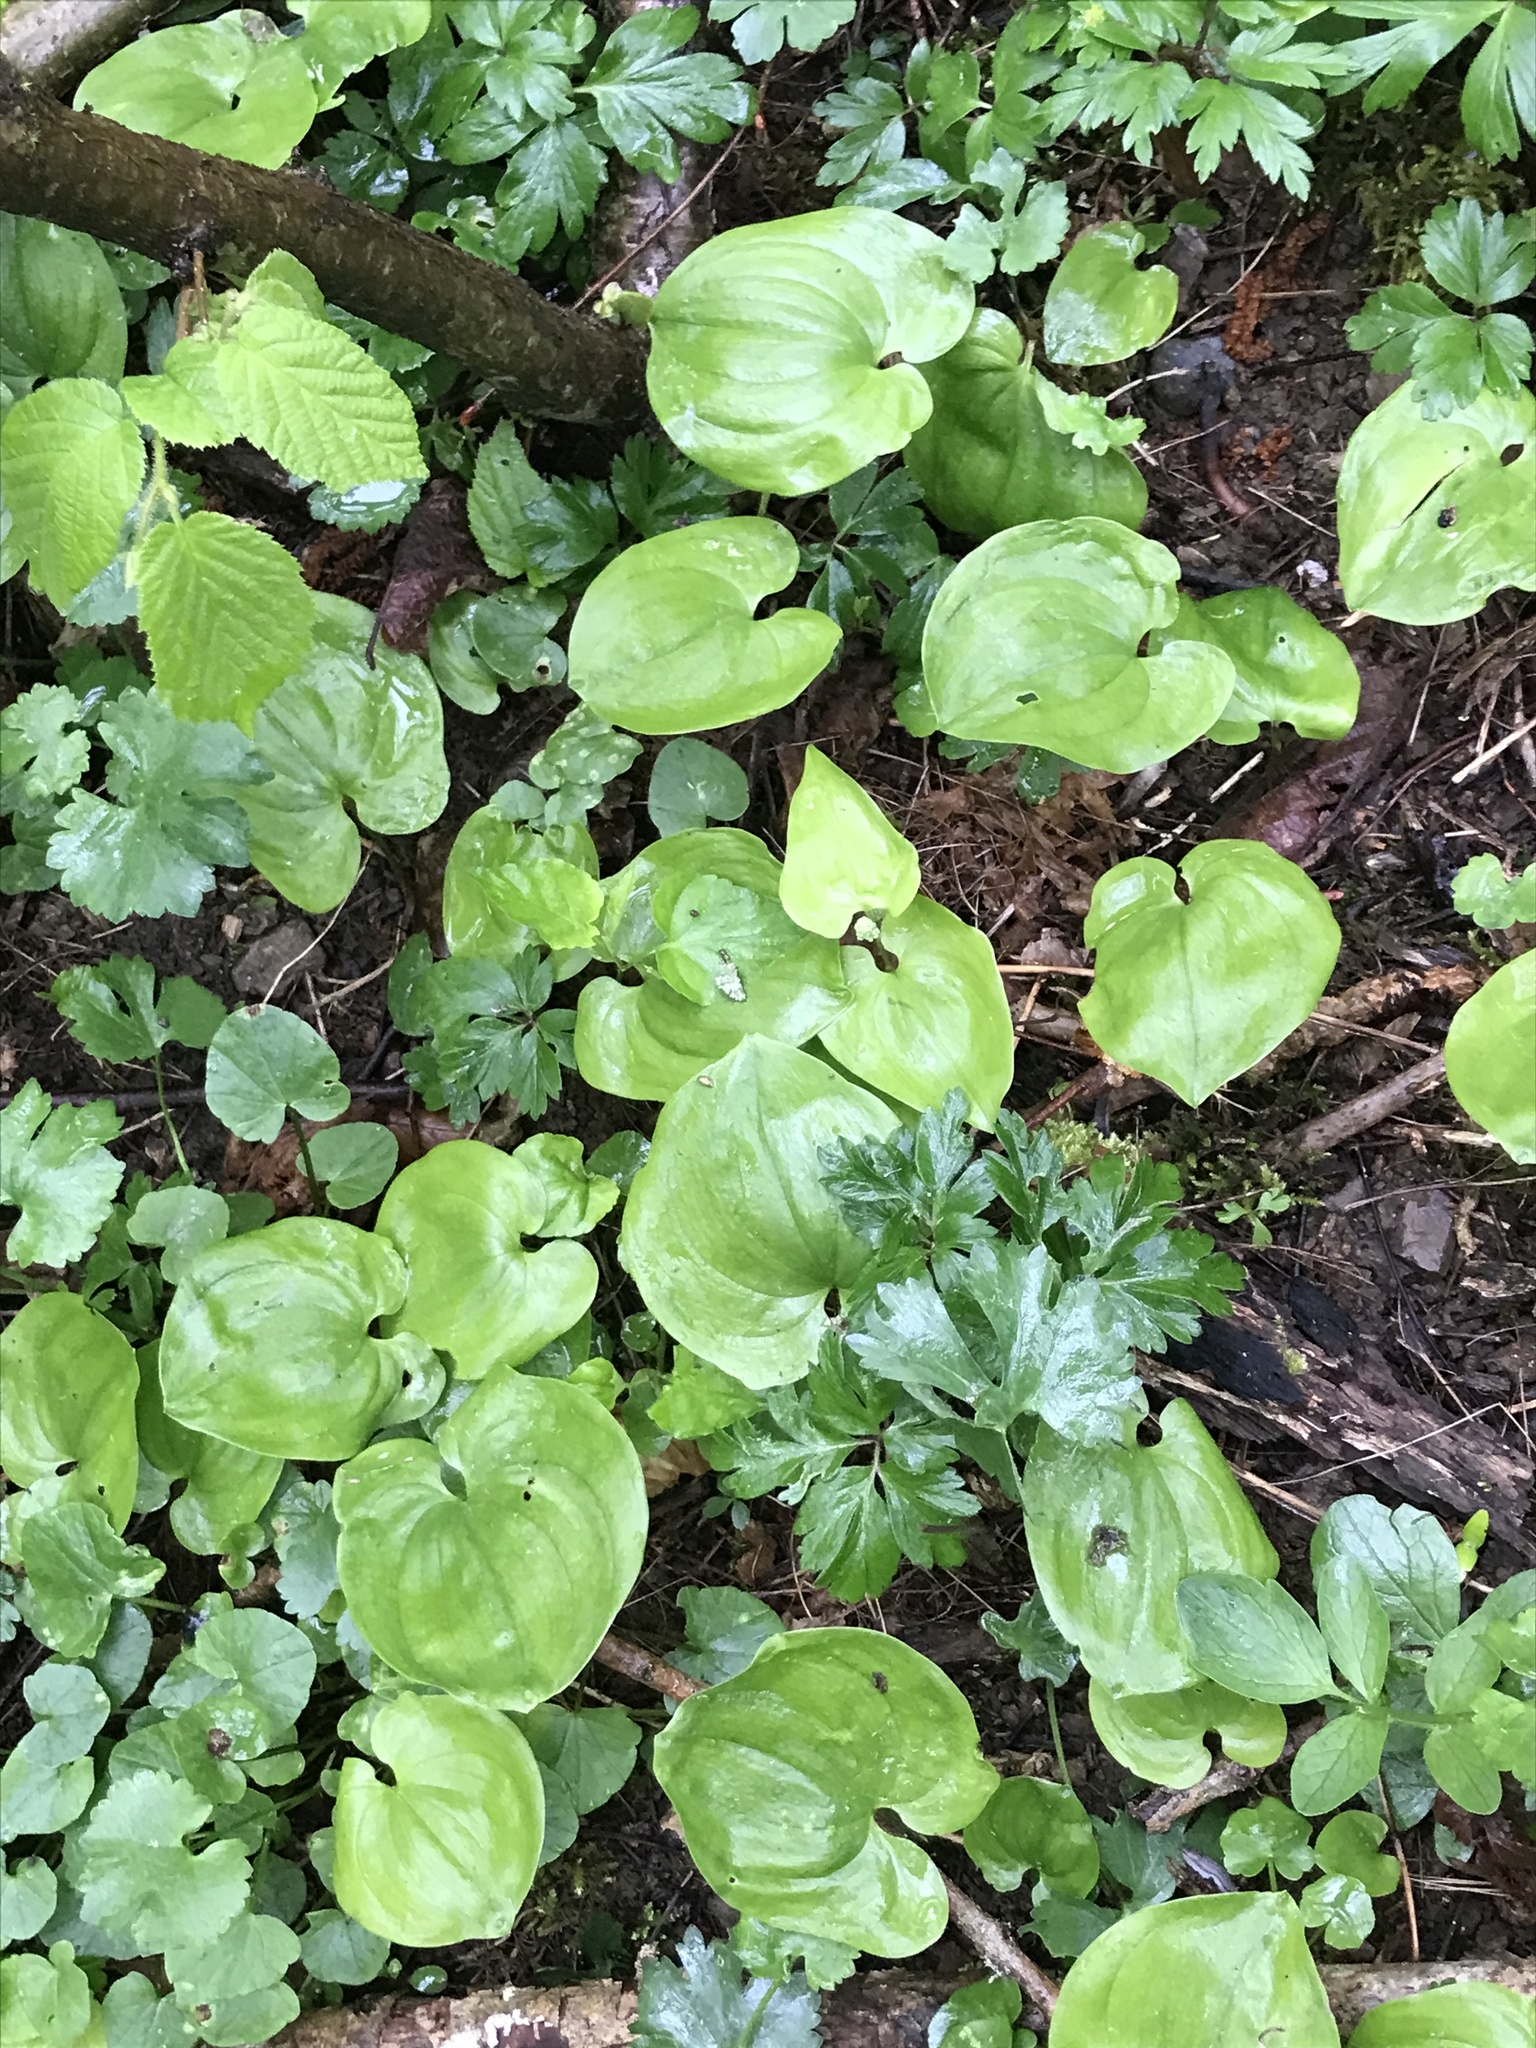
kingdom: Plantae
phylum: Tracheophyta
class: Liliopsida
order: Asparagales
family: Asparagaceae
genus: Maianthemum
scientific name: Maianthemum bifolium
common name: May lily
